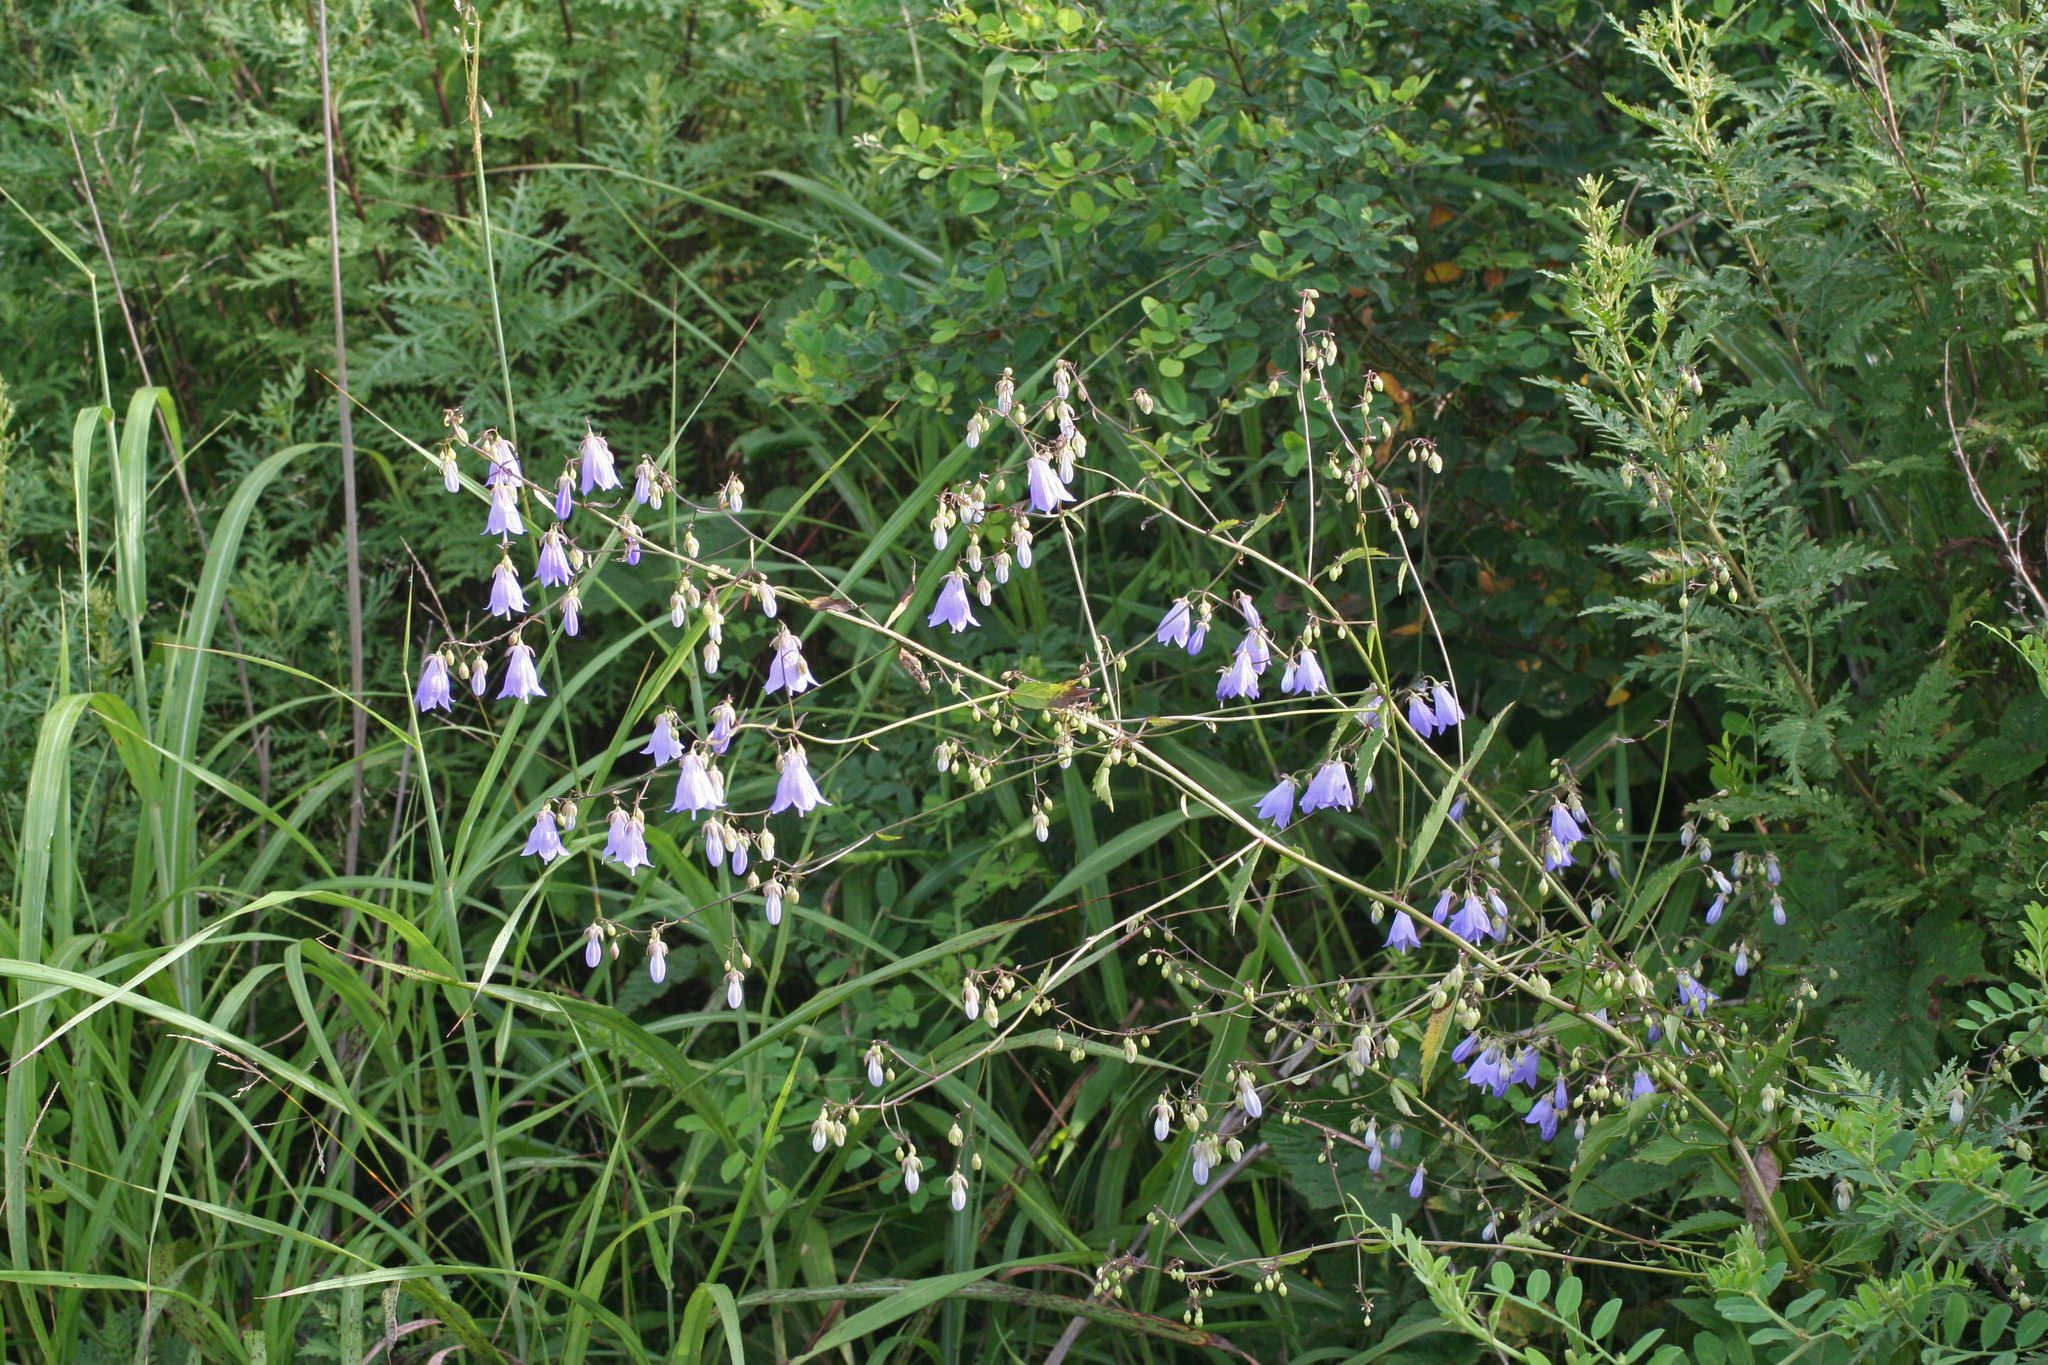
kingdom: Plantae
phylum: Tracheophyta
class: Magnoliopsida
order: Asterales
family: Campanulaceae
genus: Adenophora
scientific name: Adenophora divaricata
